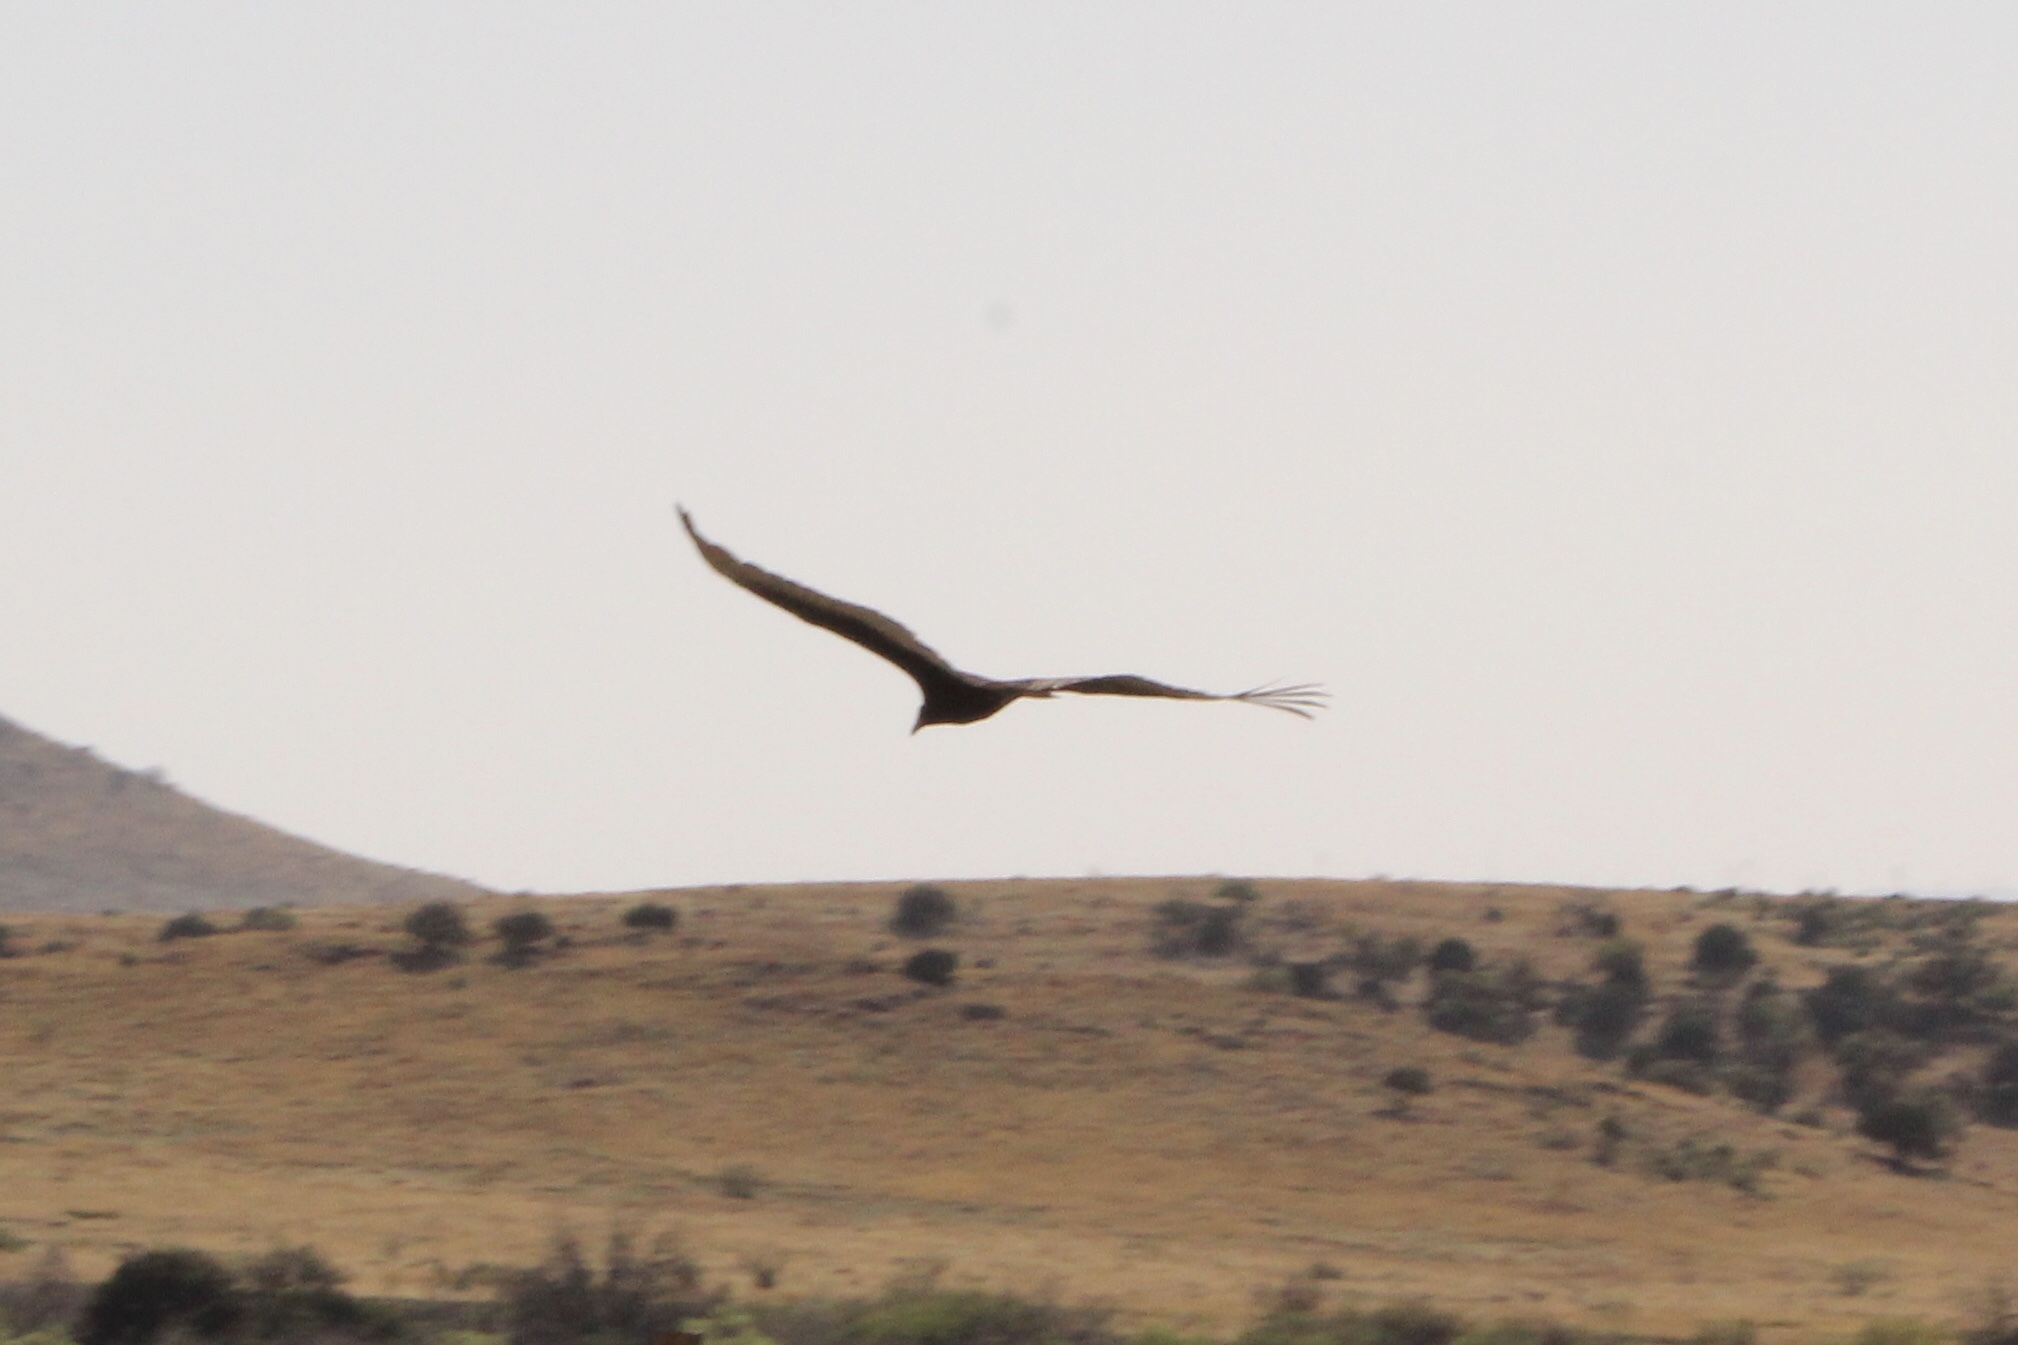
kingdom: Animalia
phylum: Chordata
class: Aves
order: Accipitriformes
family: Cathartidae
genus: Cathartes
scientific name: Cathartes aura
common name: Turkey vulture
